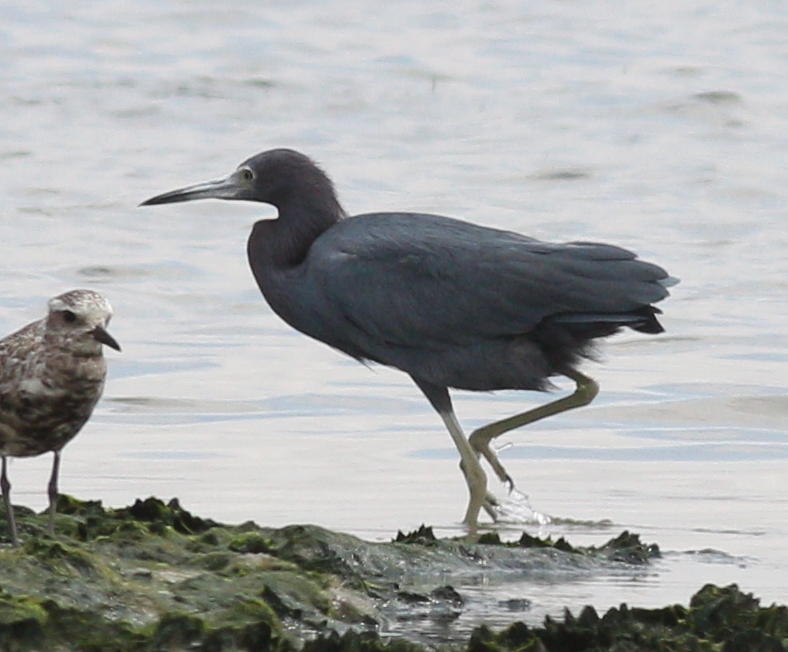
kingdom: Animalia
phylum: Chordata
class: Aves
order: Pelecaniformes
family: Ardeidae
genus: Egretta
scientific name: Egretta caerulea
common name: Little blue heron
